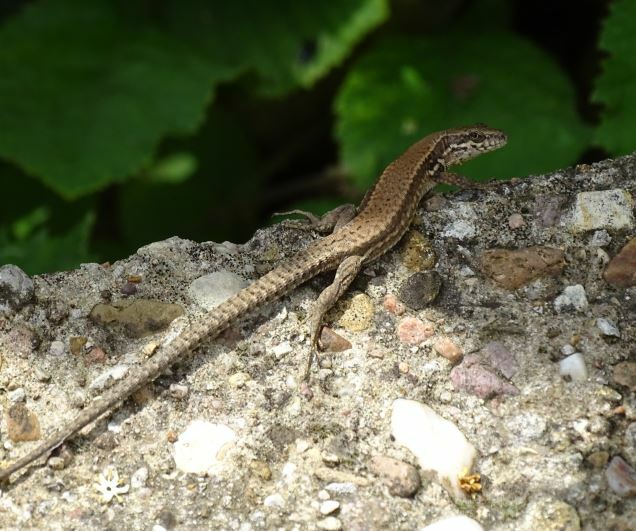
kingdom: Animalia
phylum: Chordata
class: Squamata
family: Lacertidae
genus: Podarcis
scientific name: Podarcis muralis
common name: Common wall lizard
